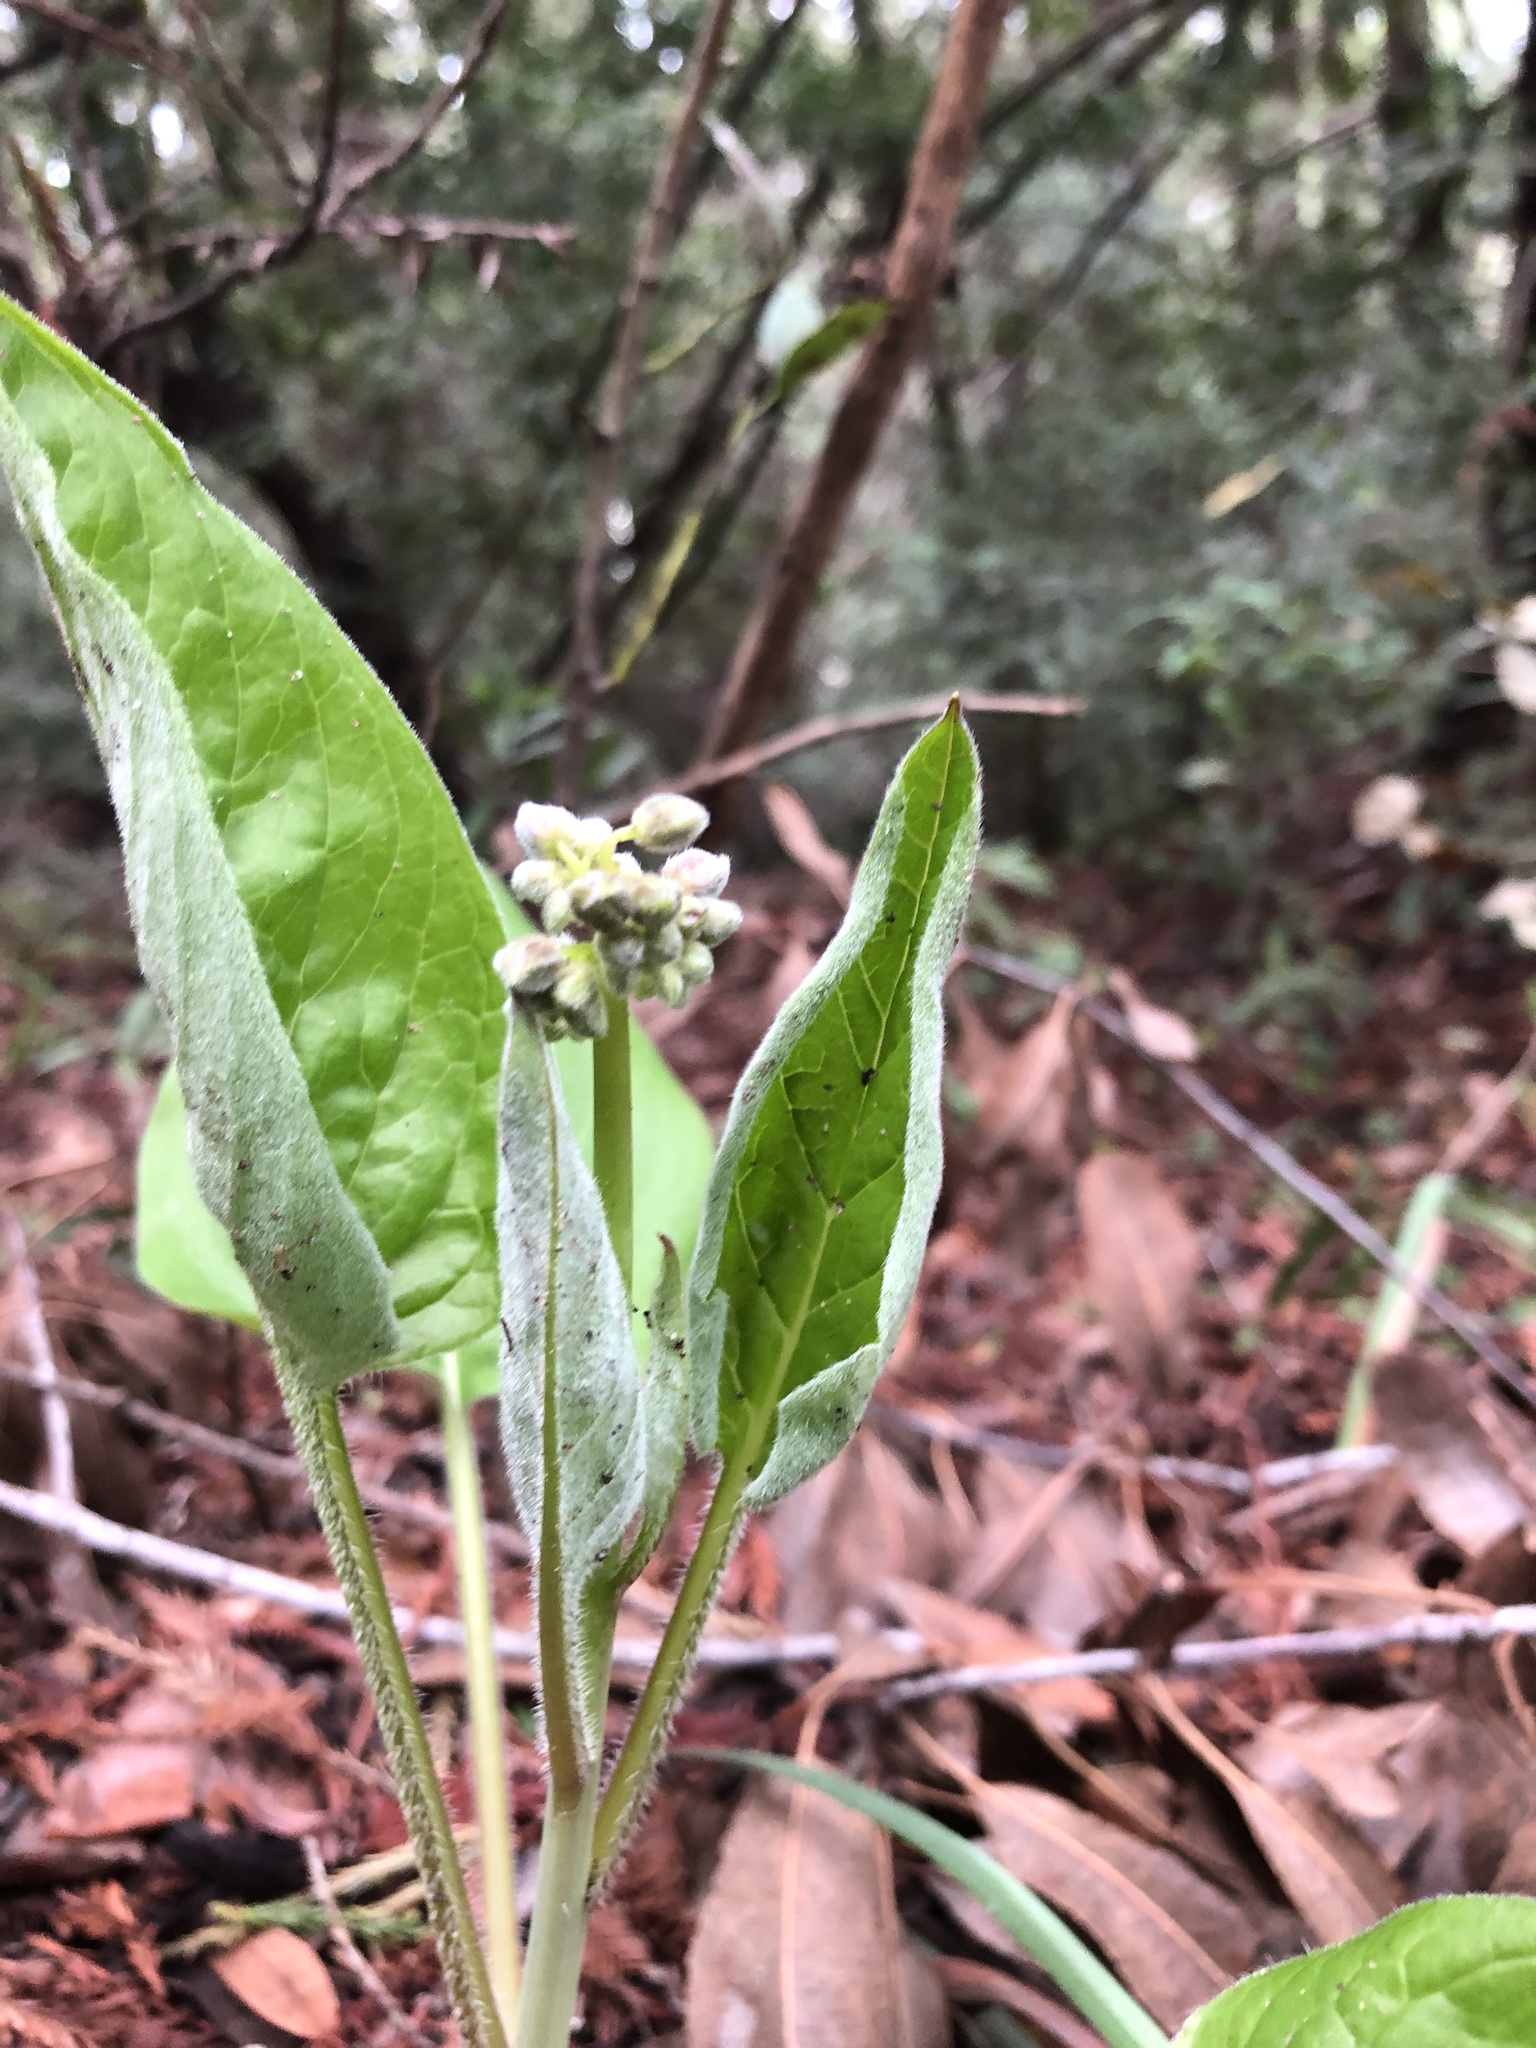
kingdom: Plantae
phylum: Tracheophyta
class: Magnoliopsida
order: Boraginales
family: Boraginaceae
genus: Adelinia
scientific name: Adelinia grande
